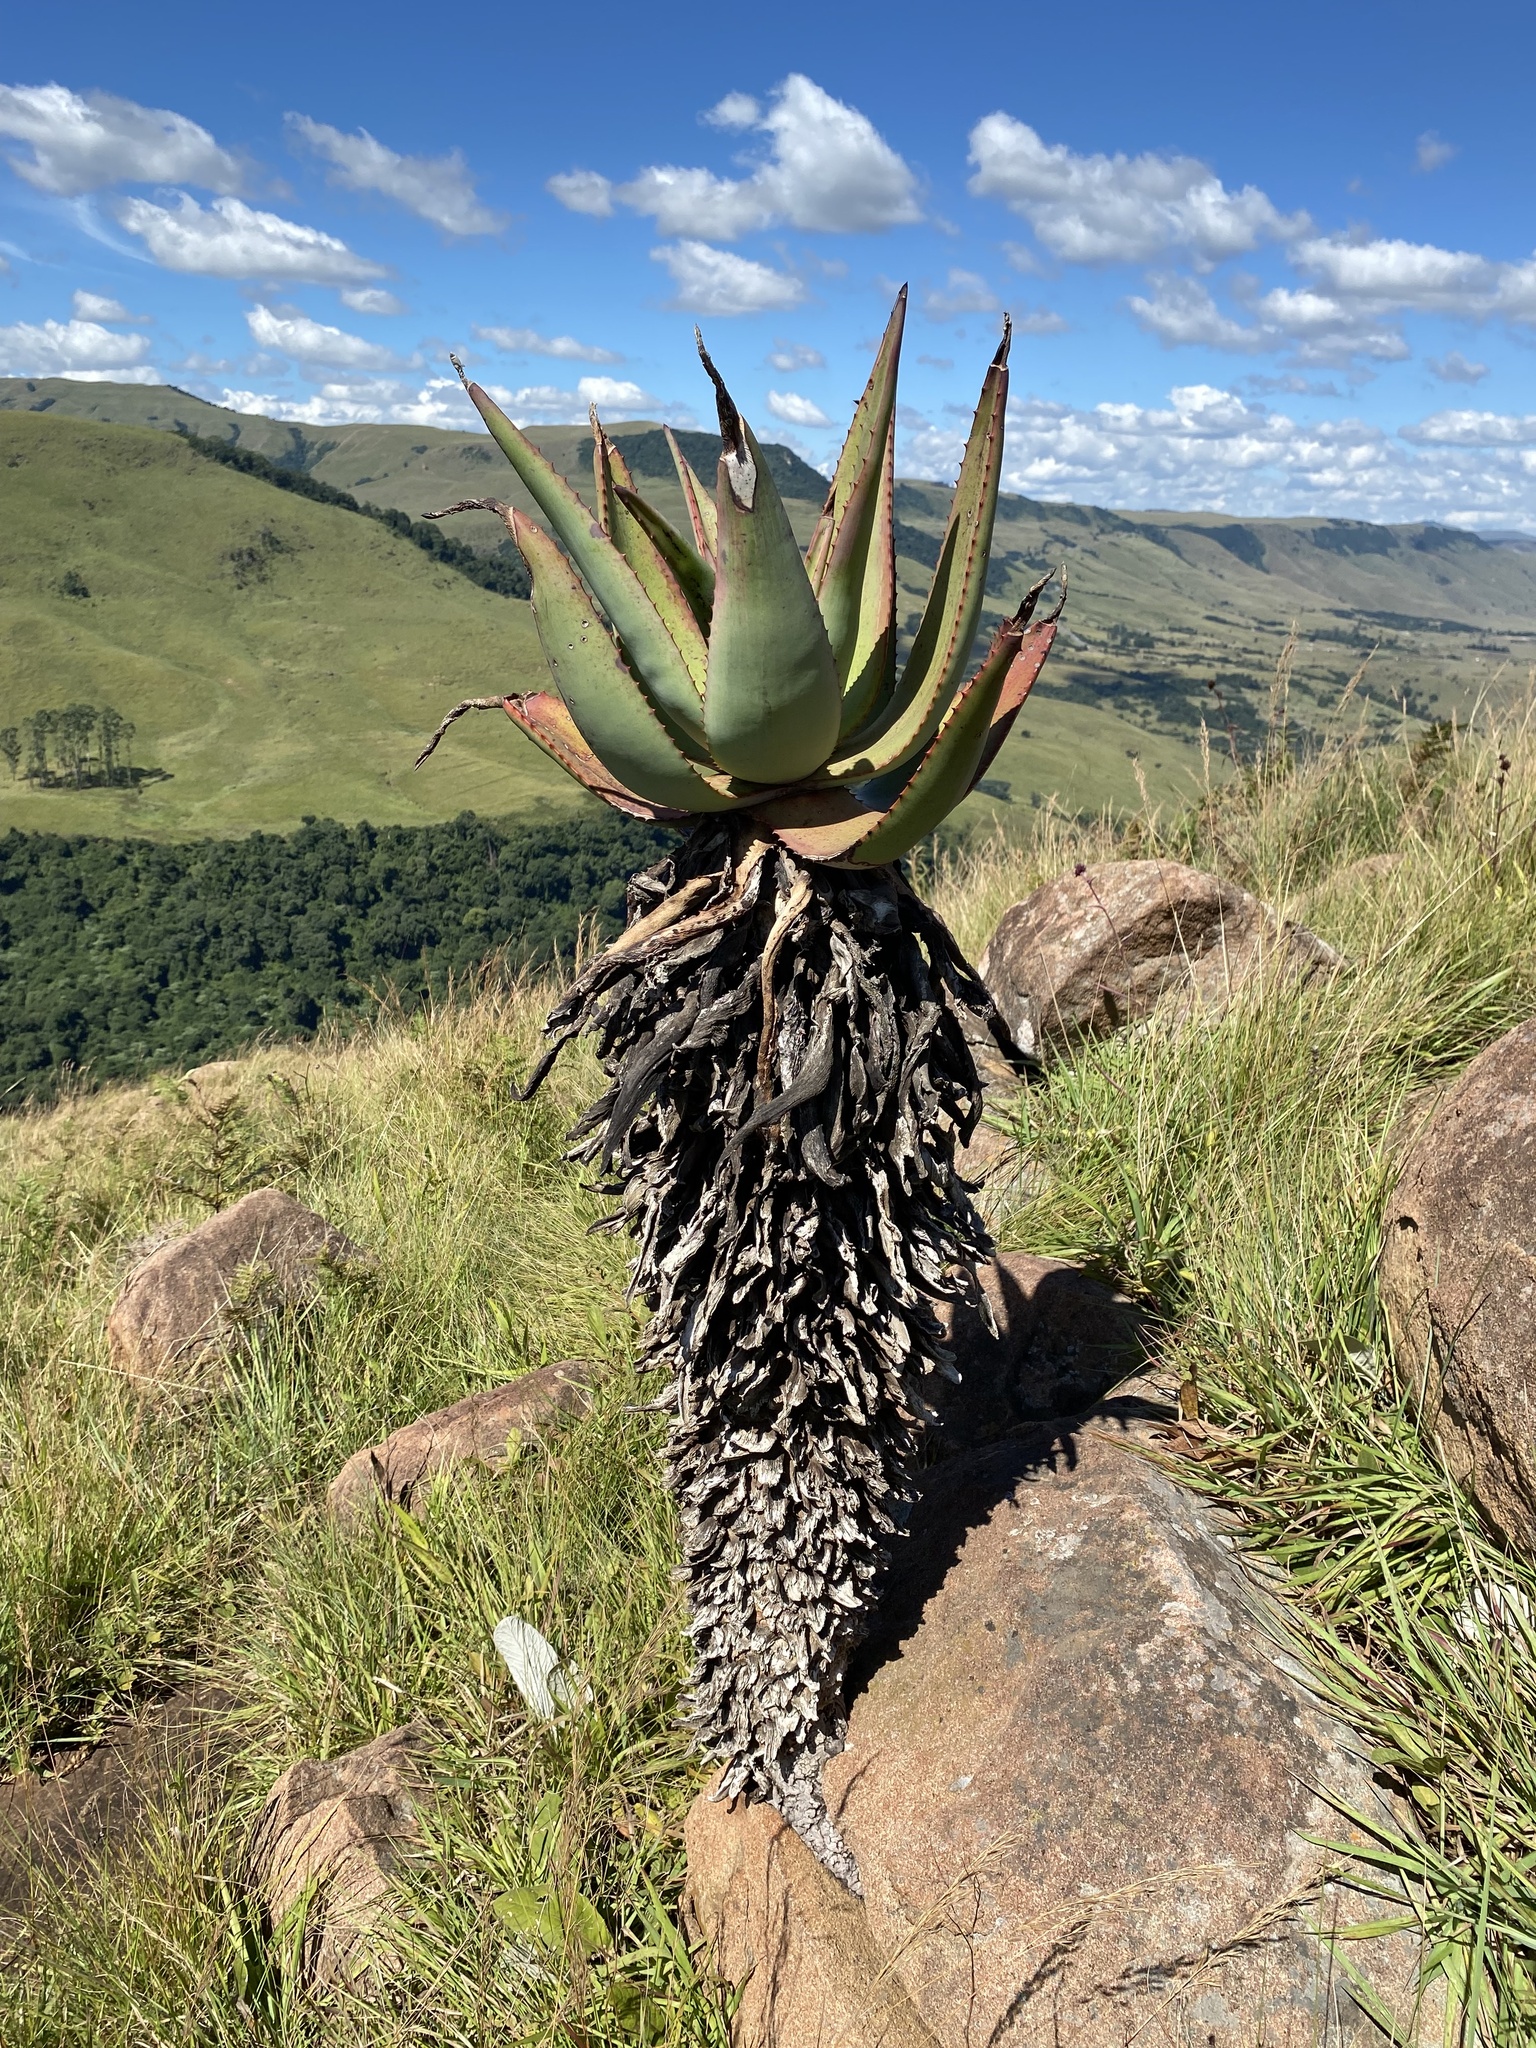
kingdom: Plantae
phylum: Tracheophyta
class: Liliopsida
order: Asparagales
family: Asphodelaceae
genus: Aloe
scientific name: Aloe ferox
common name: Bitter aloe
